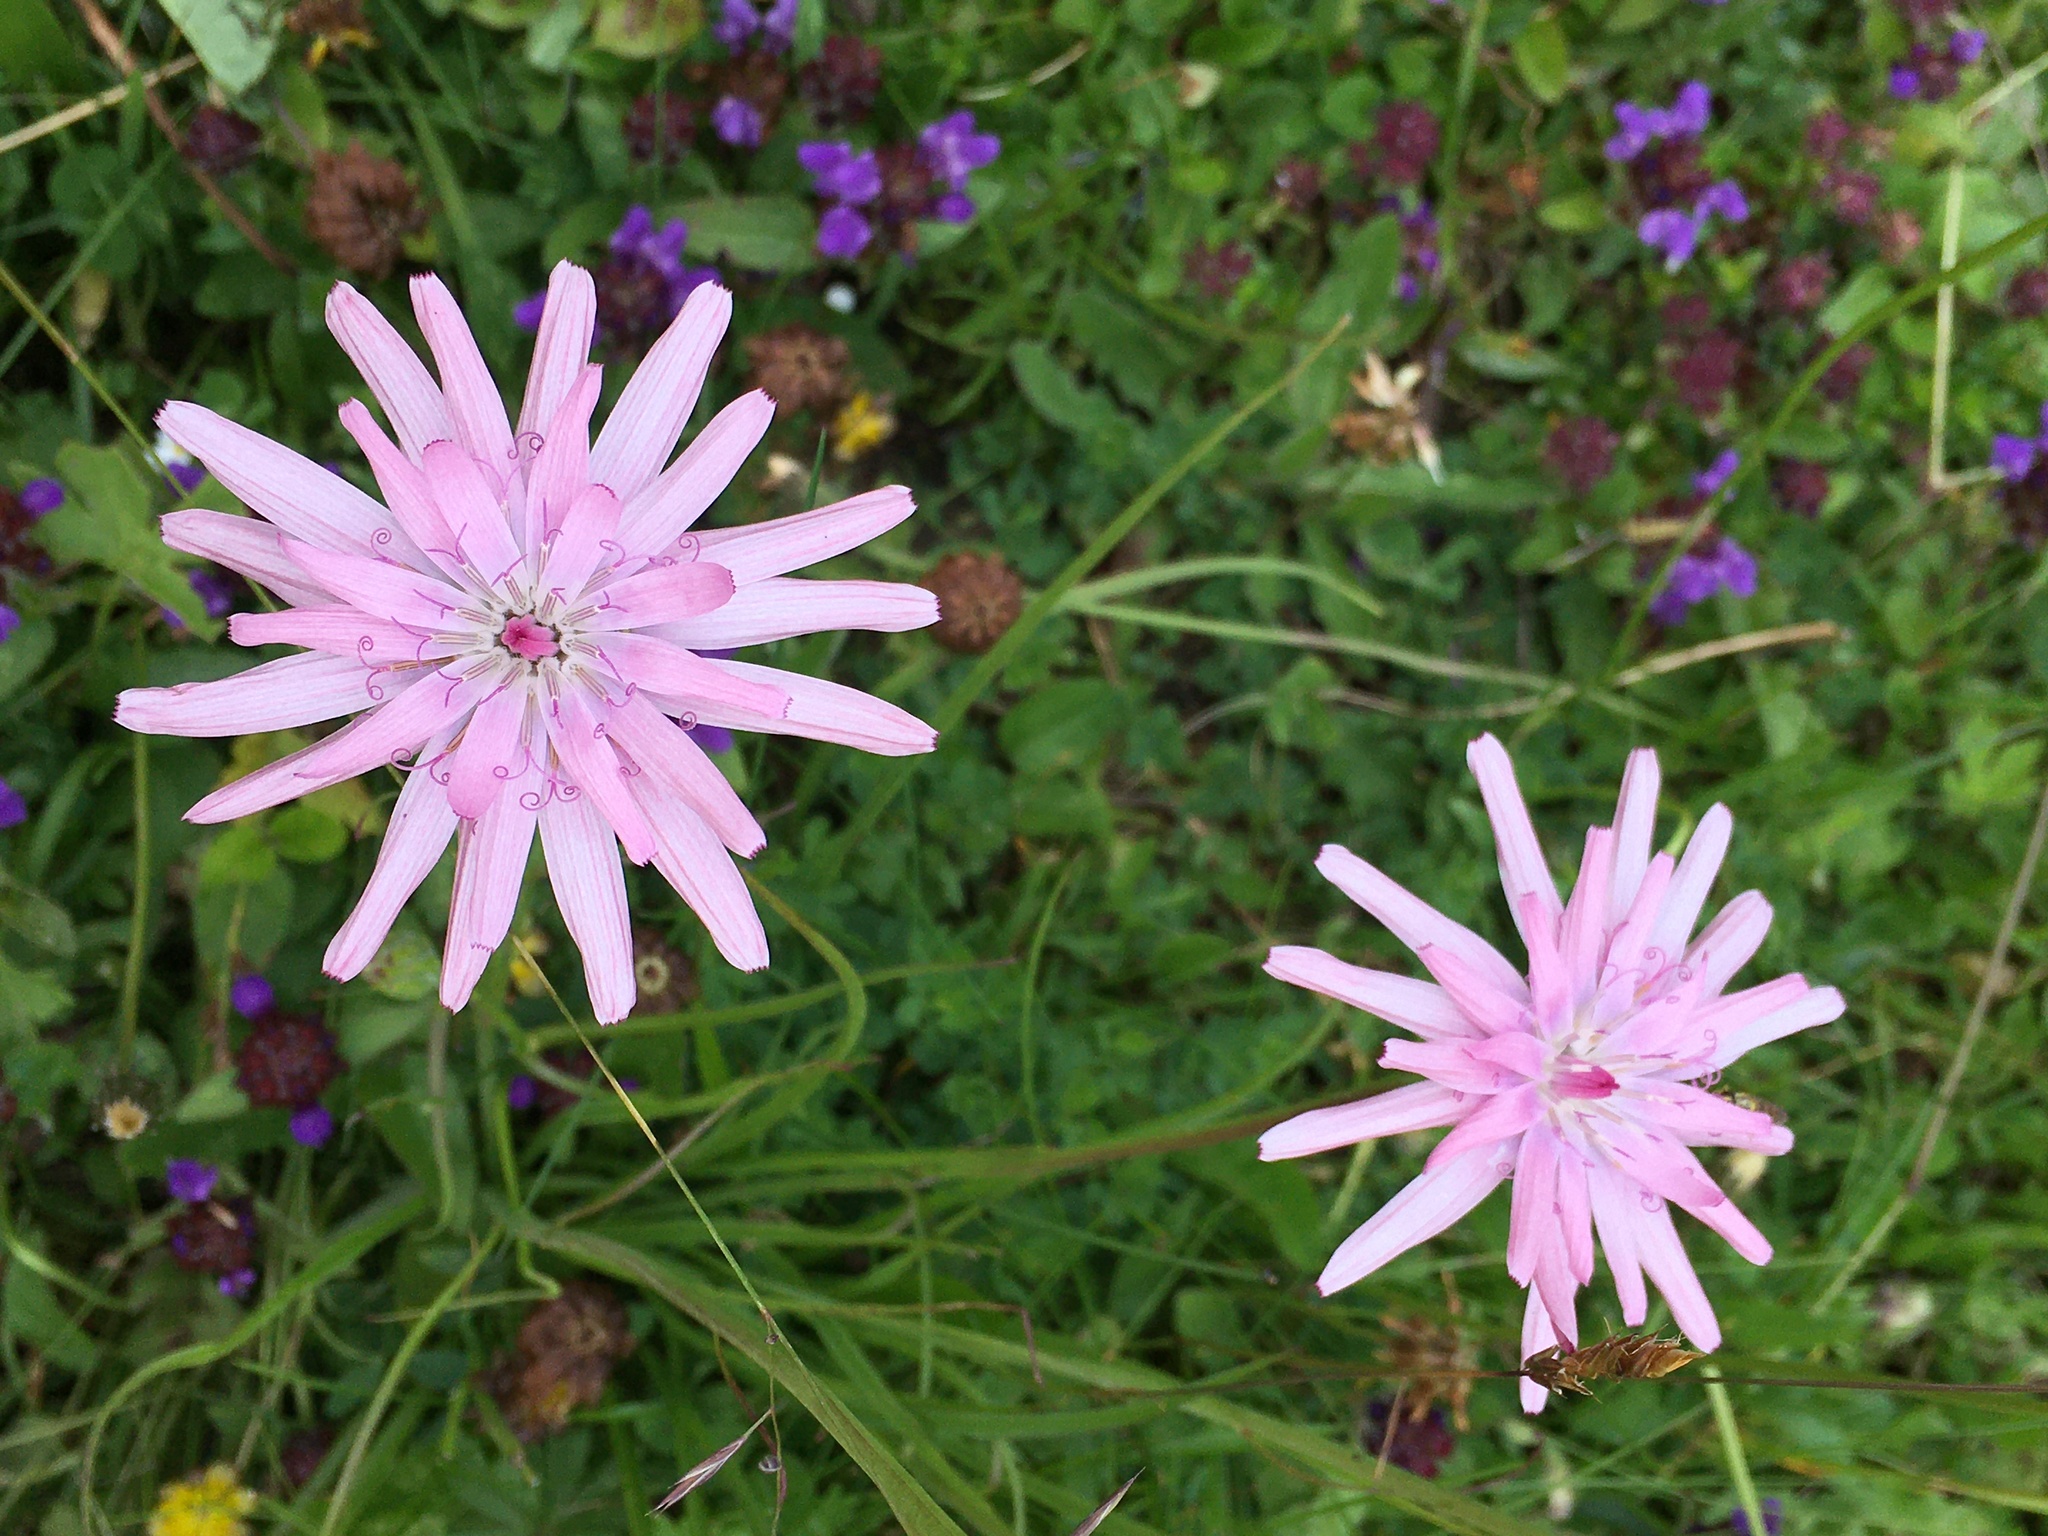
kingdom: Plantae
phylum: Tracheophyta
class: Magnoliopsida
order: Asterales
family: Asteraceae
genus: Scorzonera
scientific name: Scorzonera rosea
